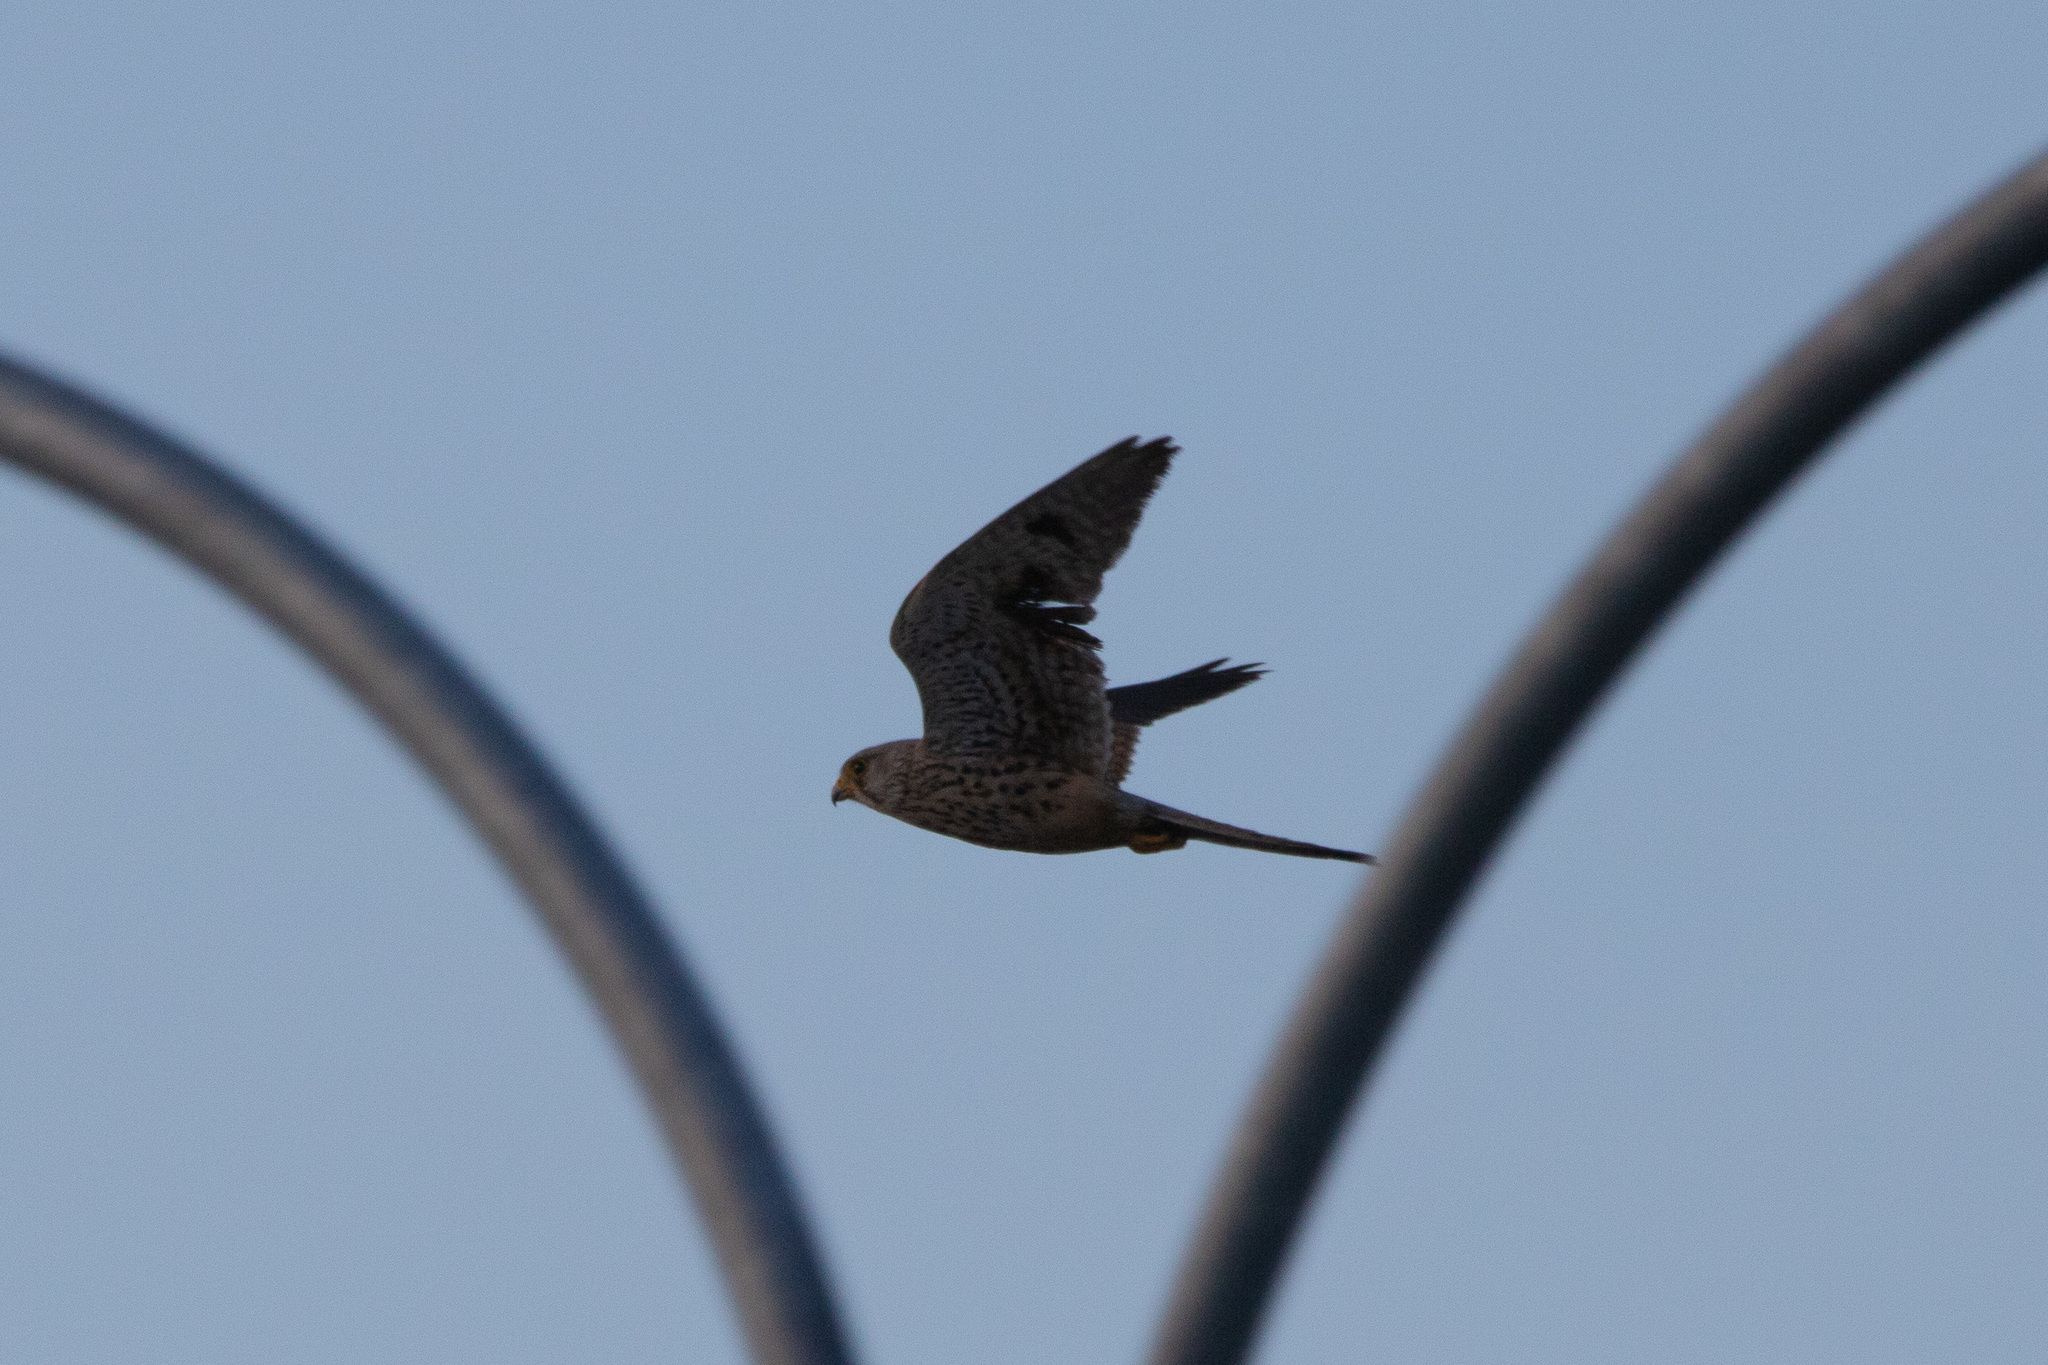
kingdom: Animalia
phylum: Chordata
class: Aves
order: Falconiformes
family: Falconidae
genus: Falco
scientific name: Falco tinnunculus
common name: Common kestrel
